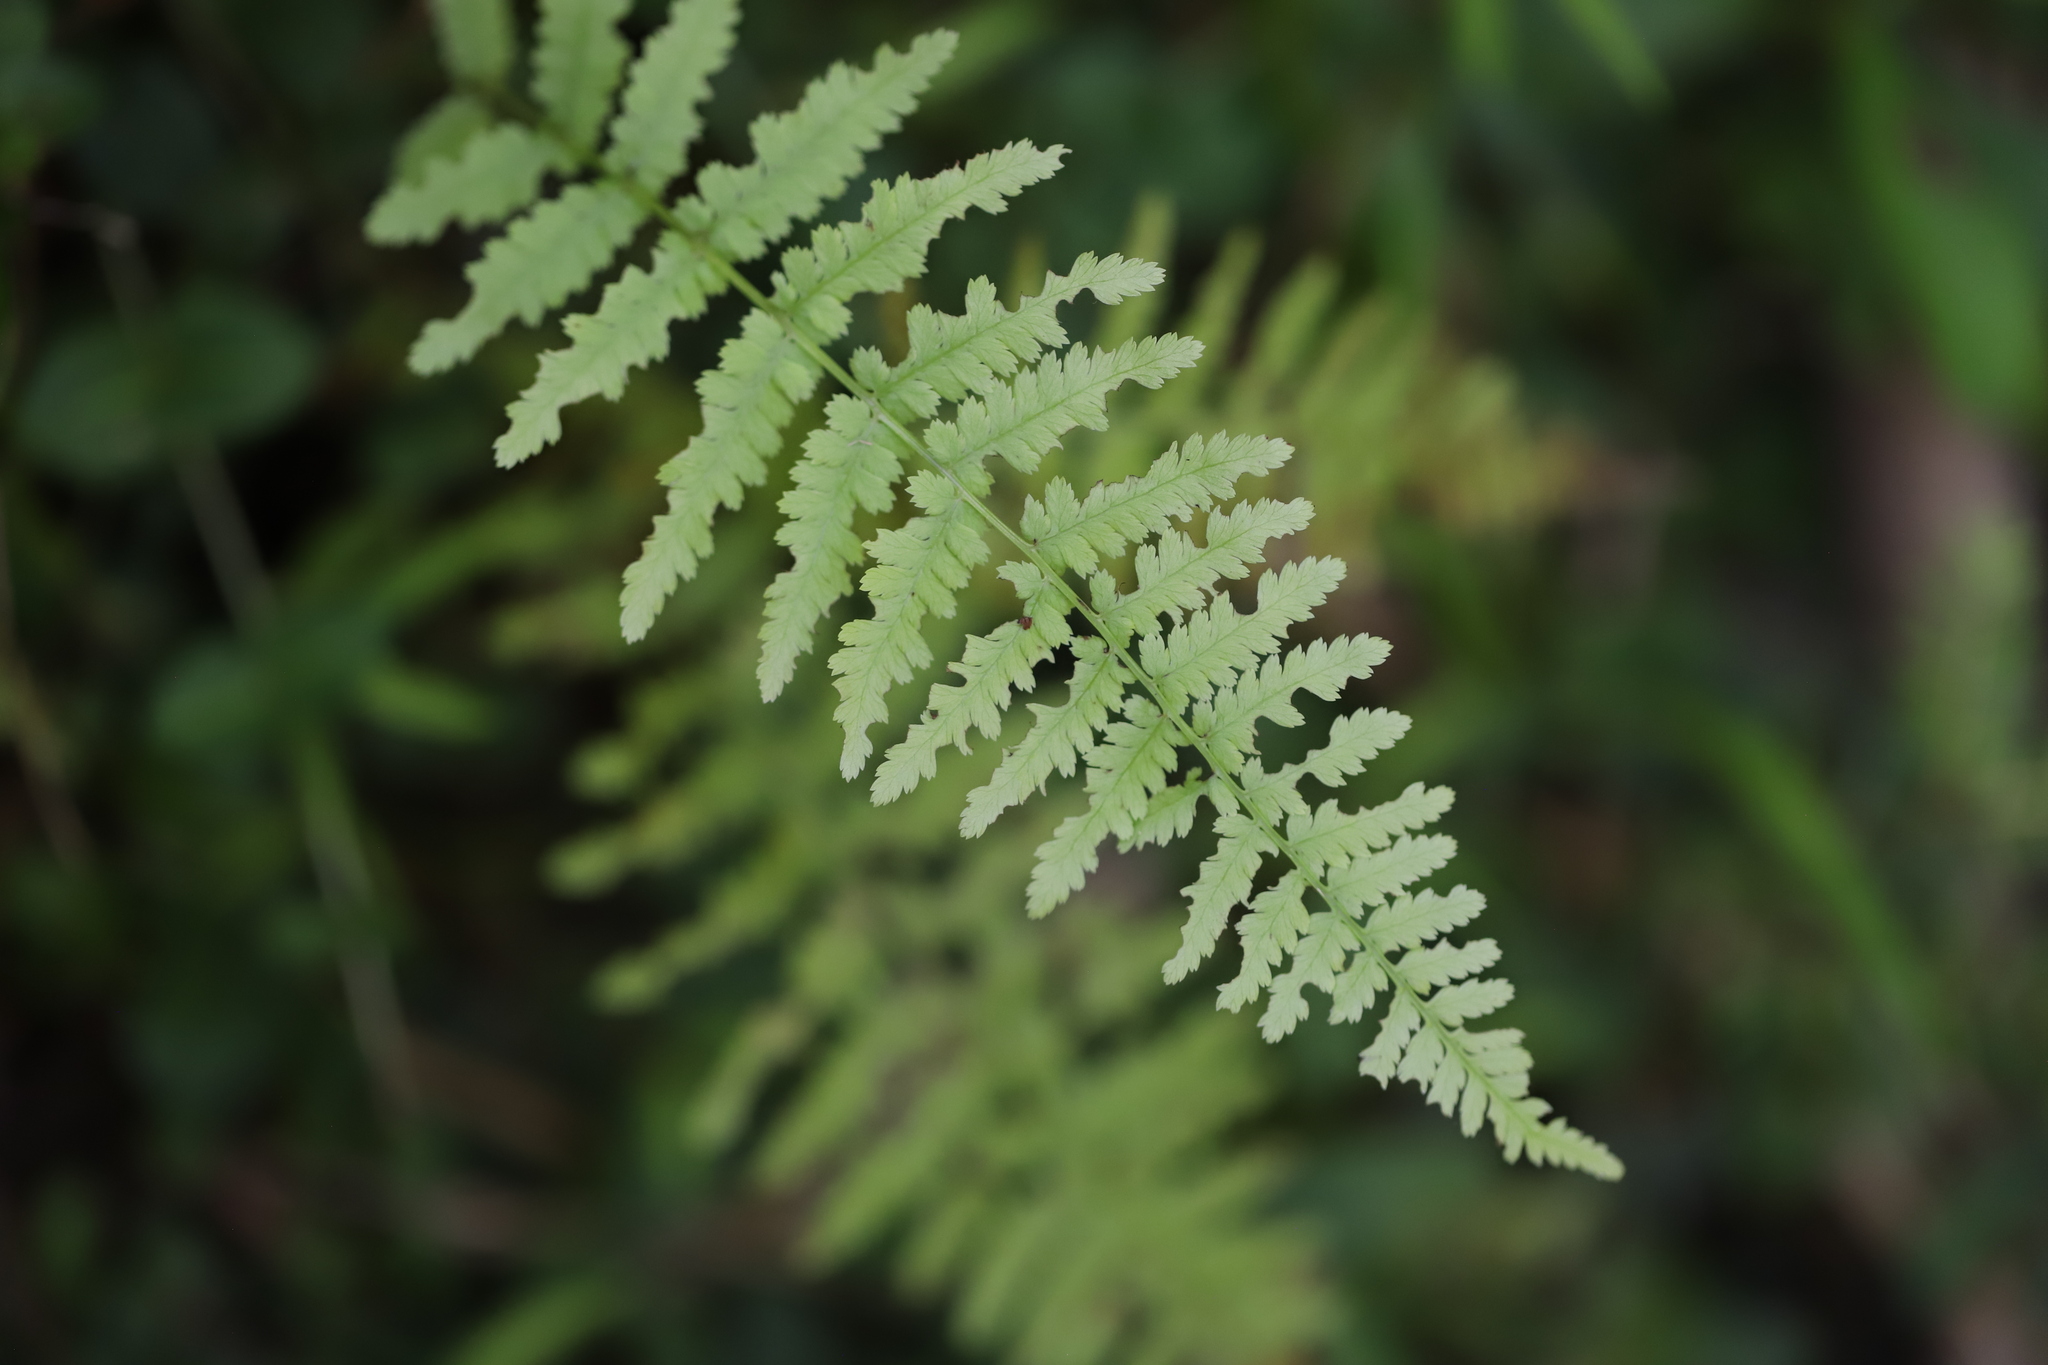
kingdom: Plantae
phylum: Tracheophyta
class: Polypodiopsida
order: Polypodiales
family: Athyriaceae
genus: Athyrium
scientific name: Athyrium angustum
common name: Northern lady fern
